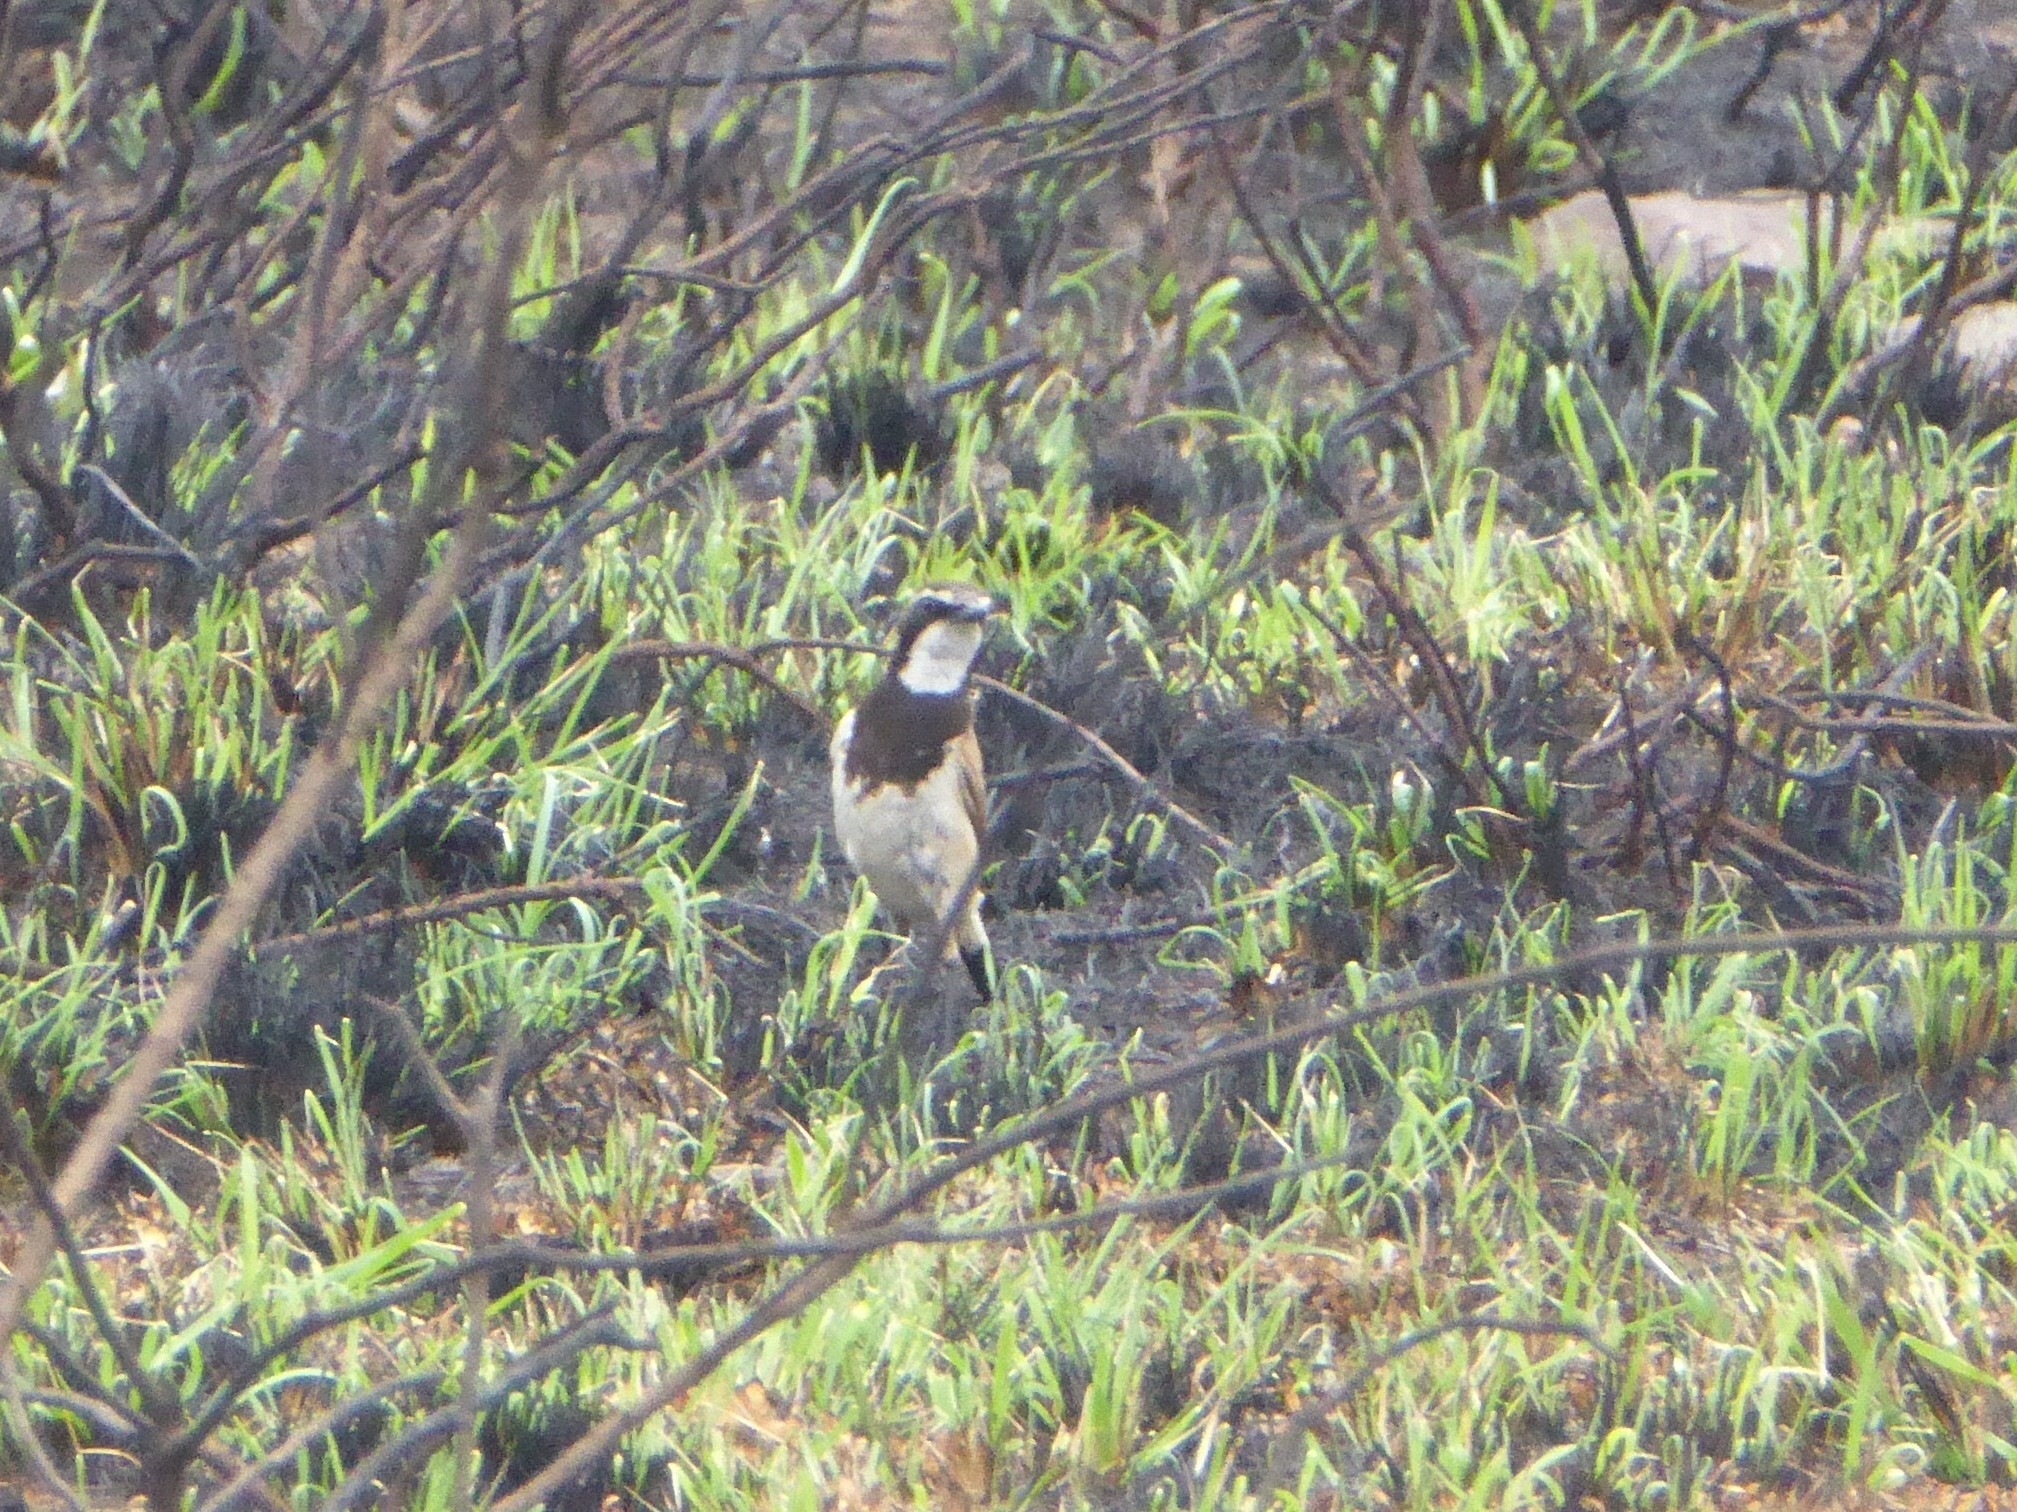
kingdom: Animalia
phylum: Chordata
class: Aves
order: Passeriformes
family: Muscicapidae
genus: Oenanthe
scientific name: Oenanthe pileata
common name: Capped wheatear
